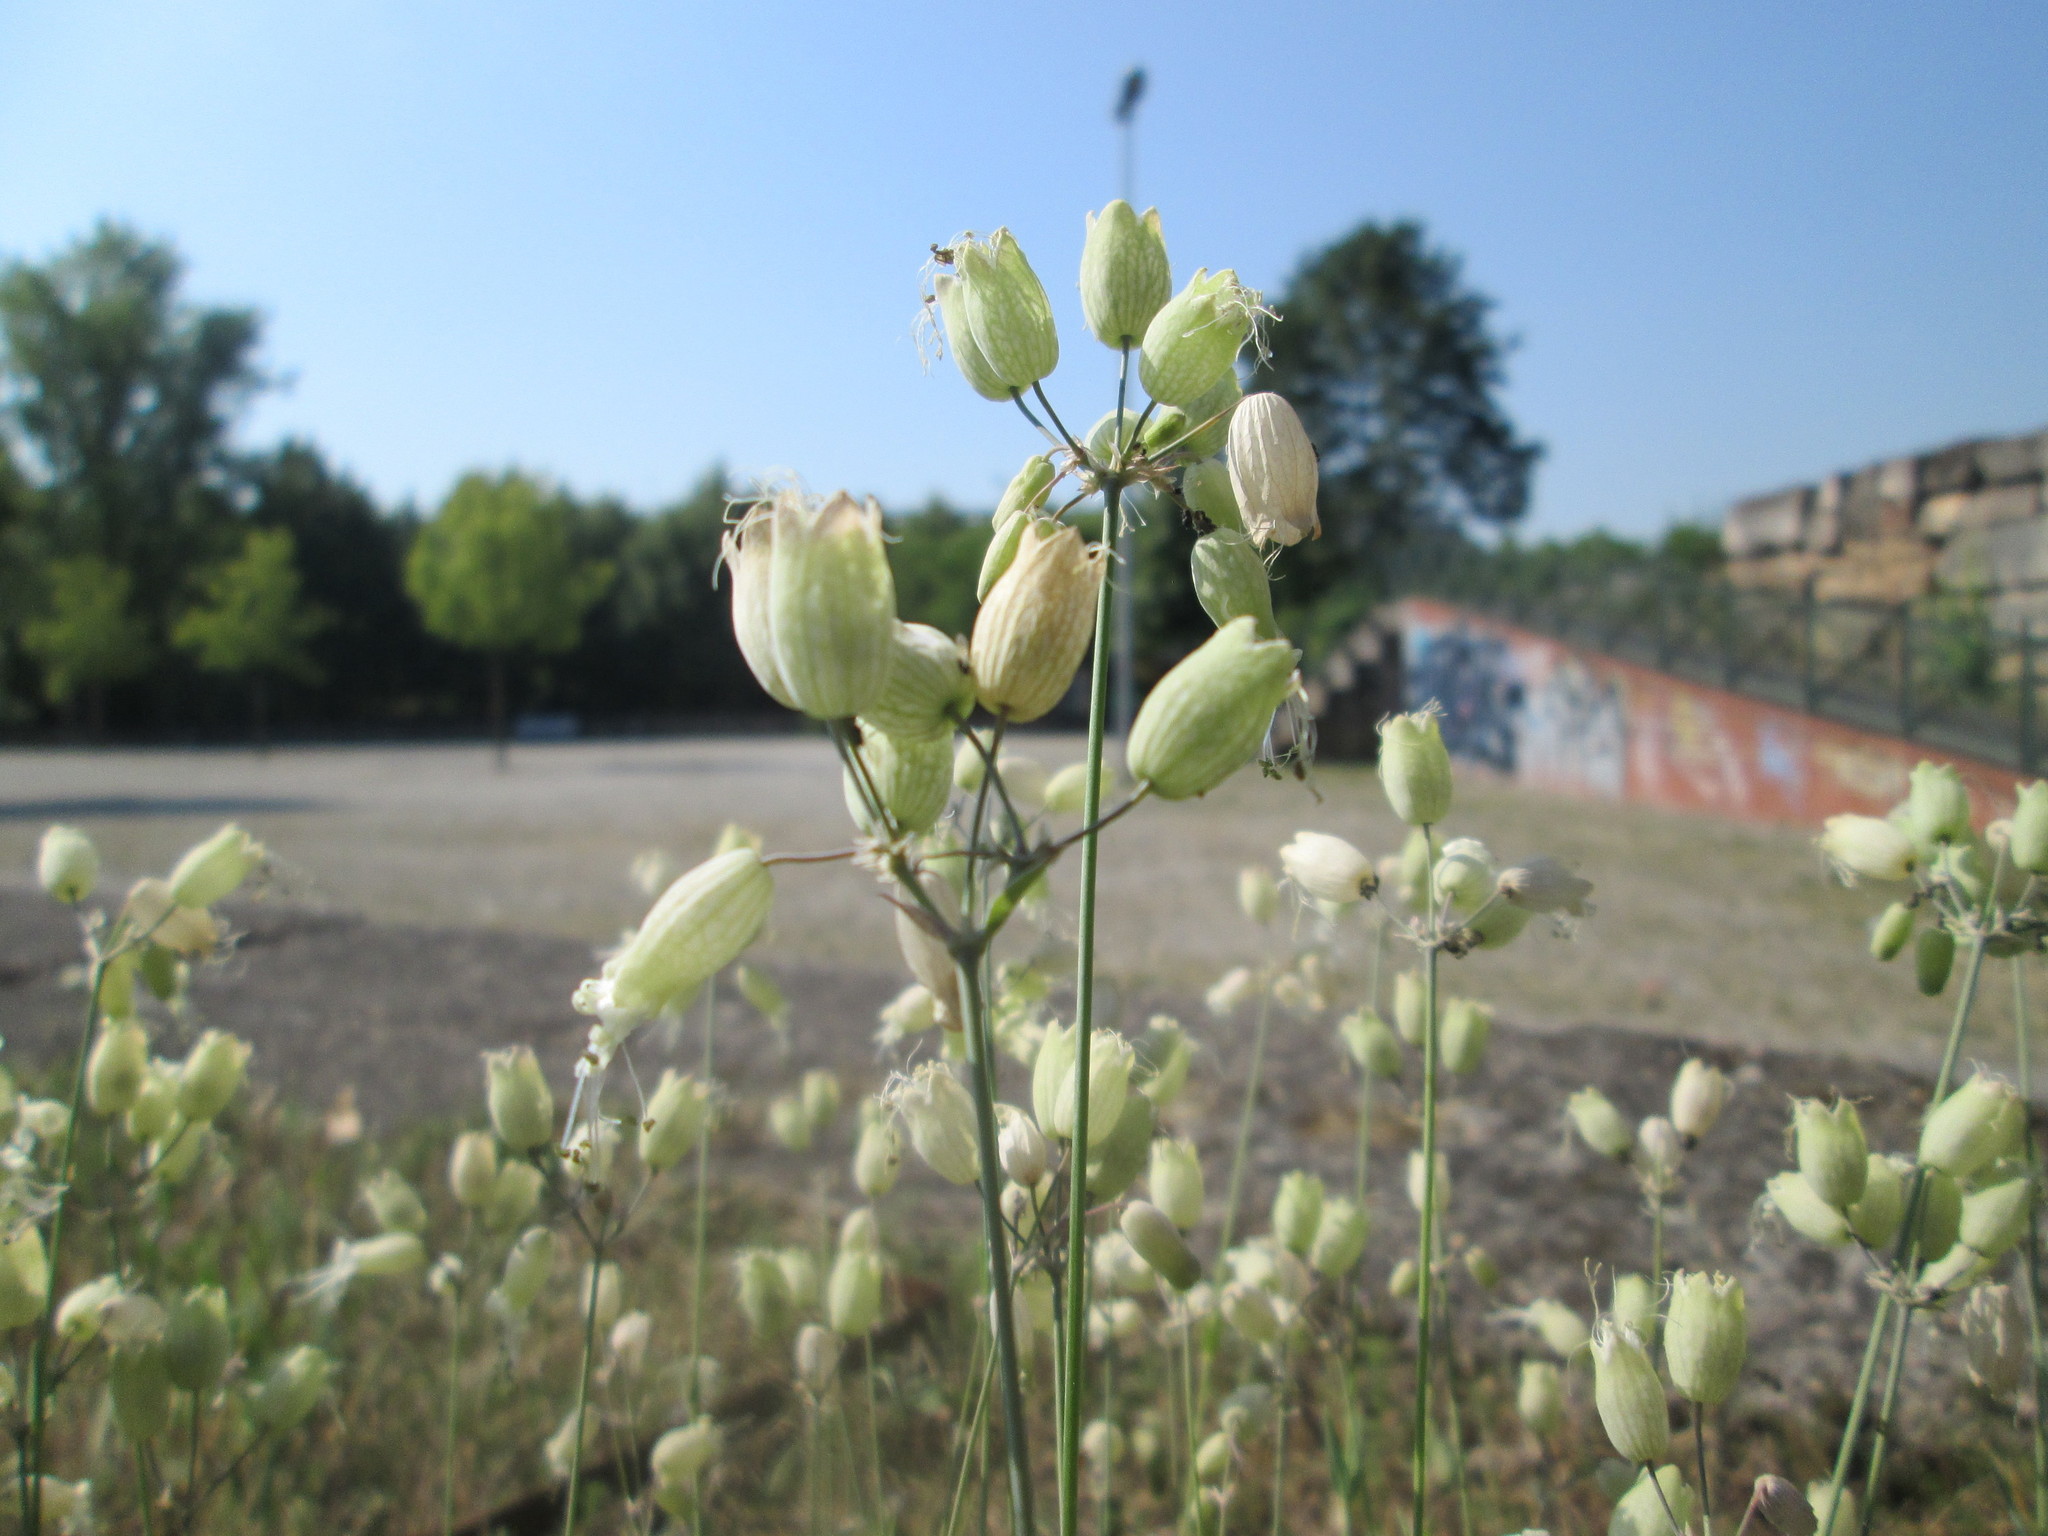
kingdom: Plantae
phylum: Tracheophyta
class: Magnoliopsida
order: Caryophyllales
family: Caryophyllaceae
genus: Silene
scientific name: Silene vulgaris
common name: Bladder campion
